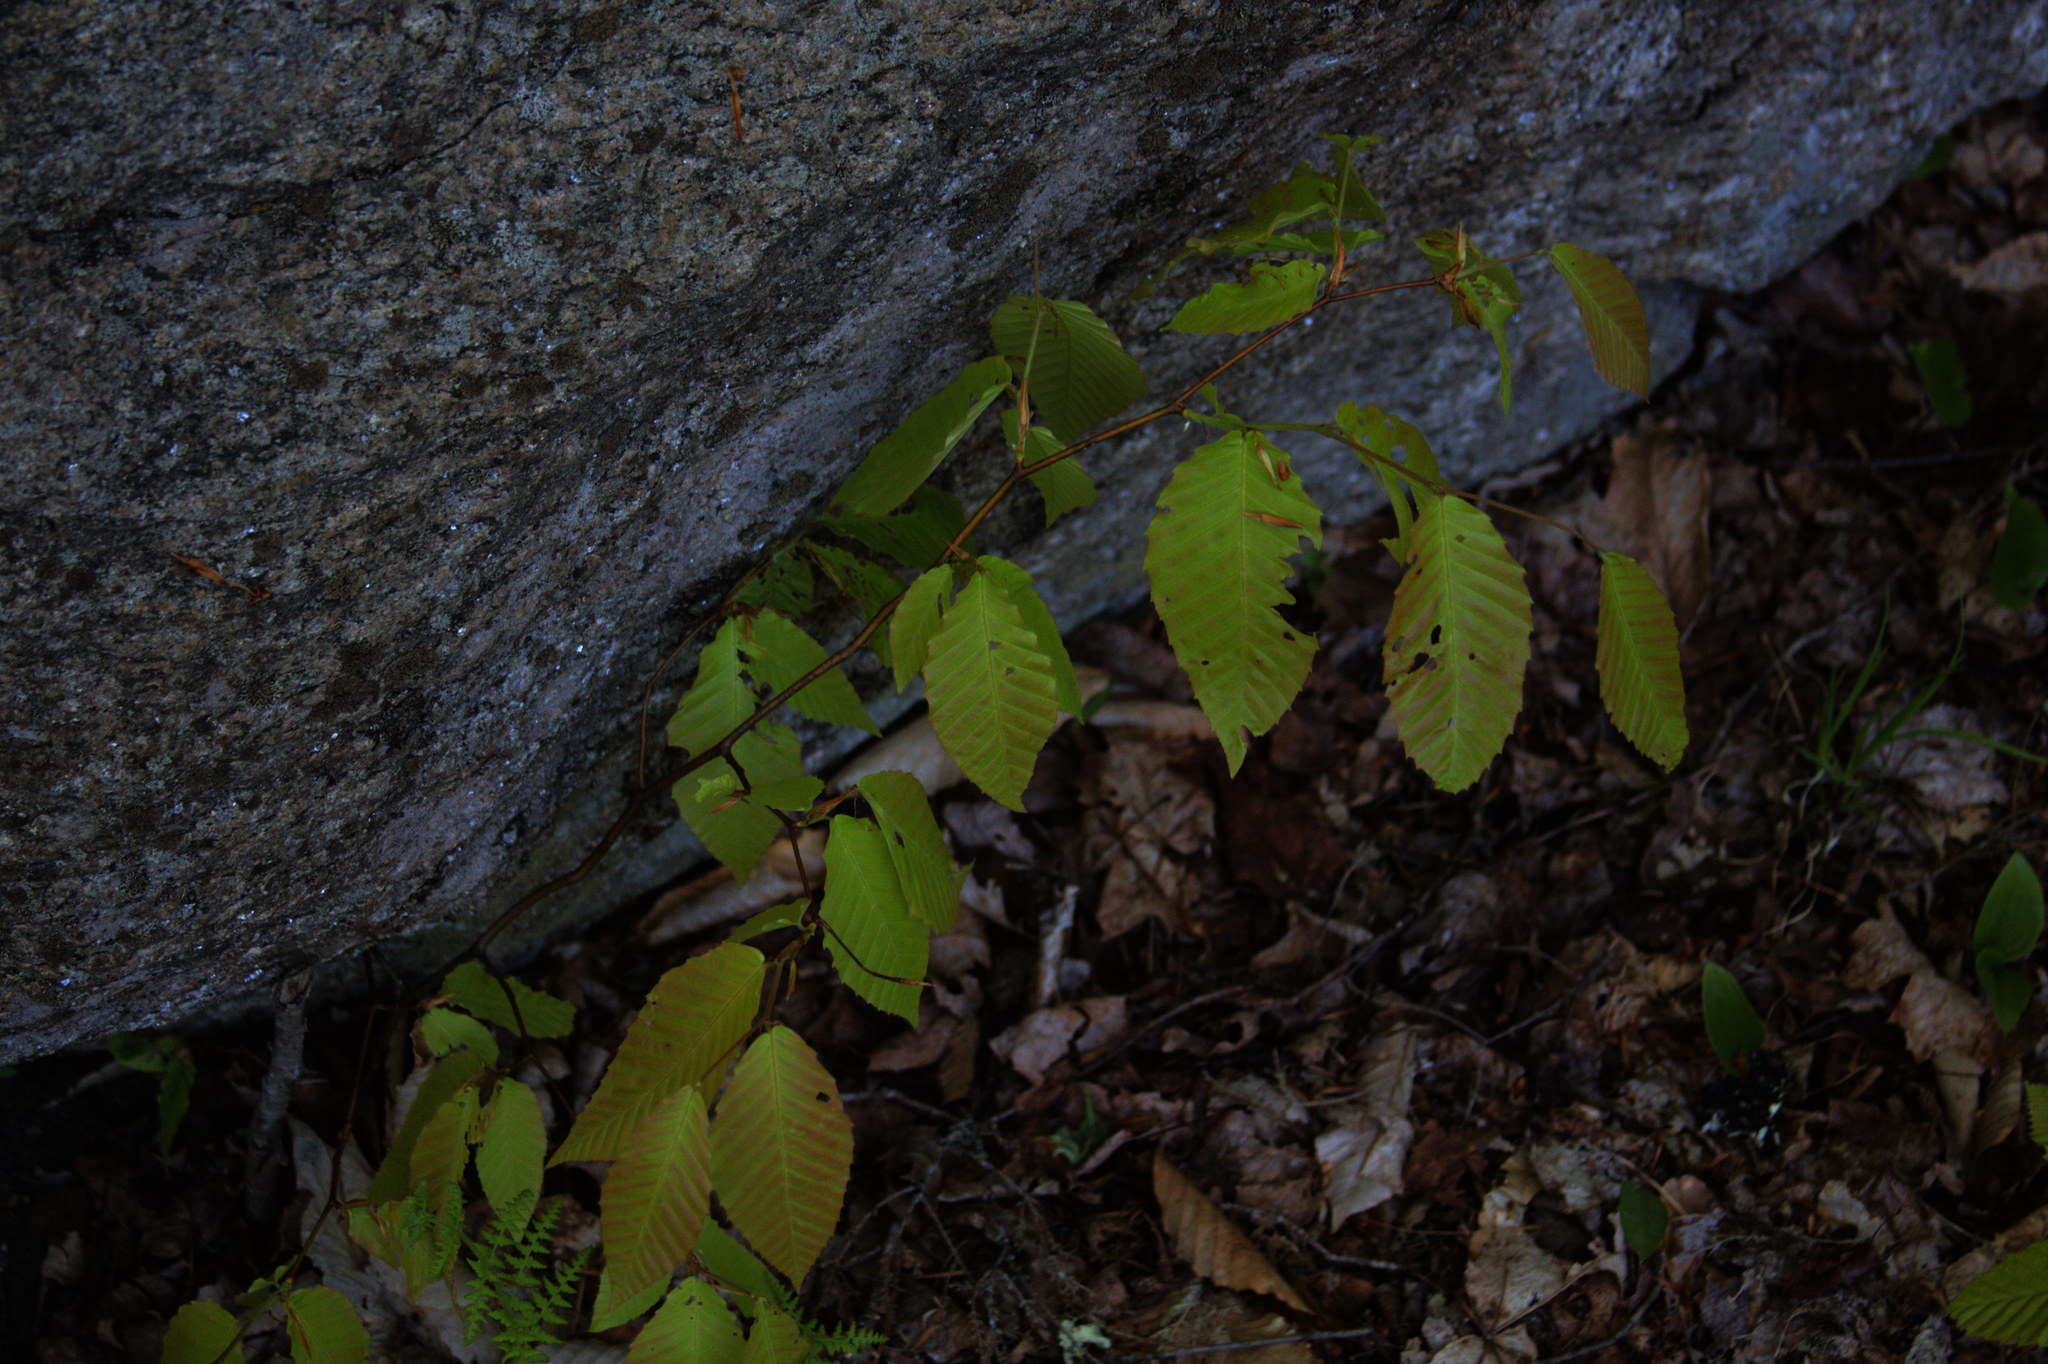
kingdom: Plantae
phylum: Tracheophyta
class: Magnoliopsida
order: Fagales
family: Fagaceae
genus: Fagus
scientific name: Fagus grandifolia
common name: American beech
